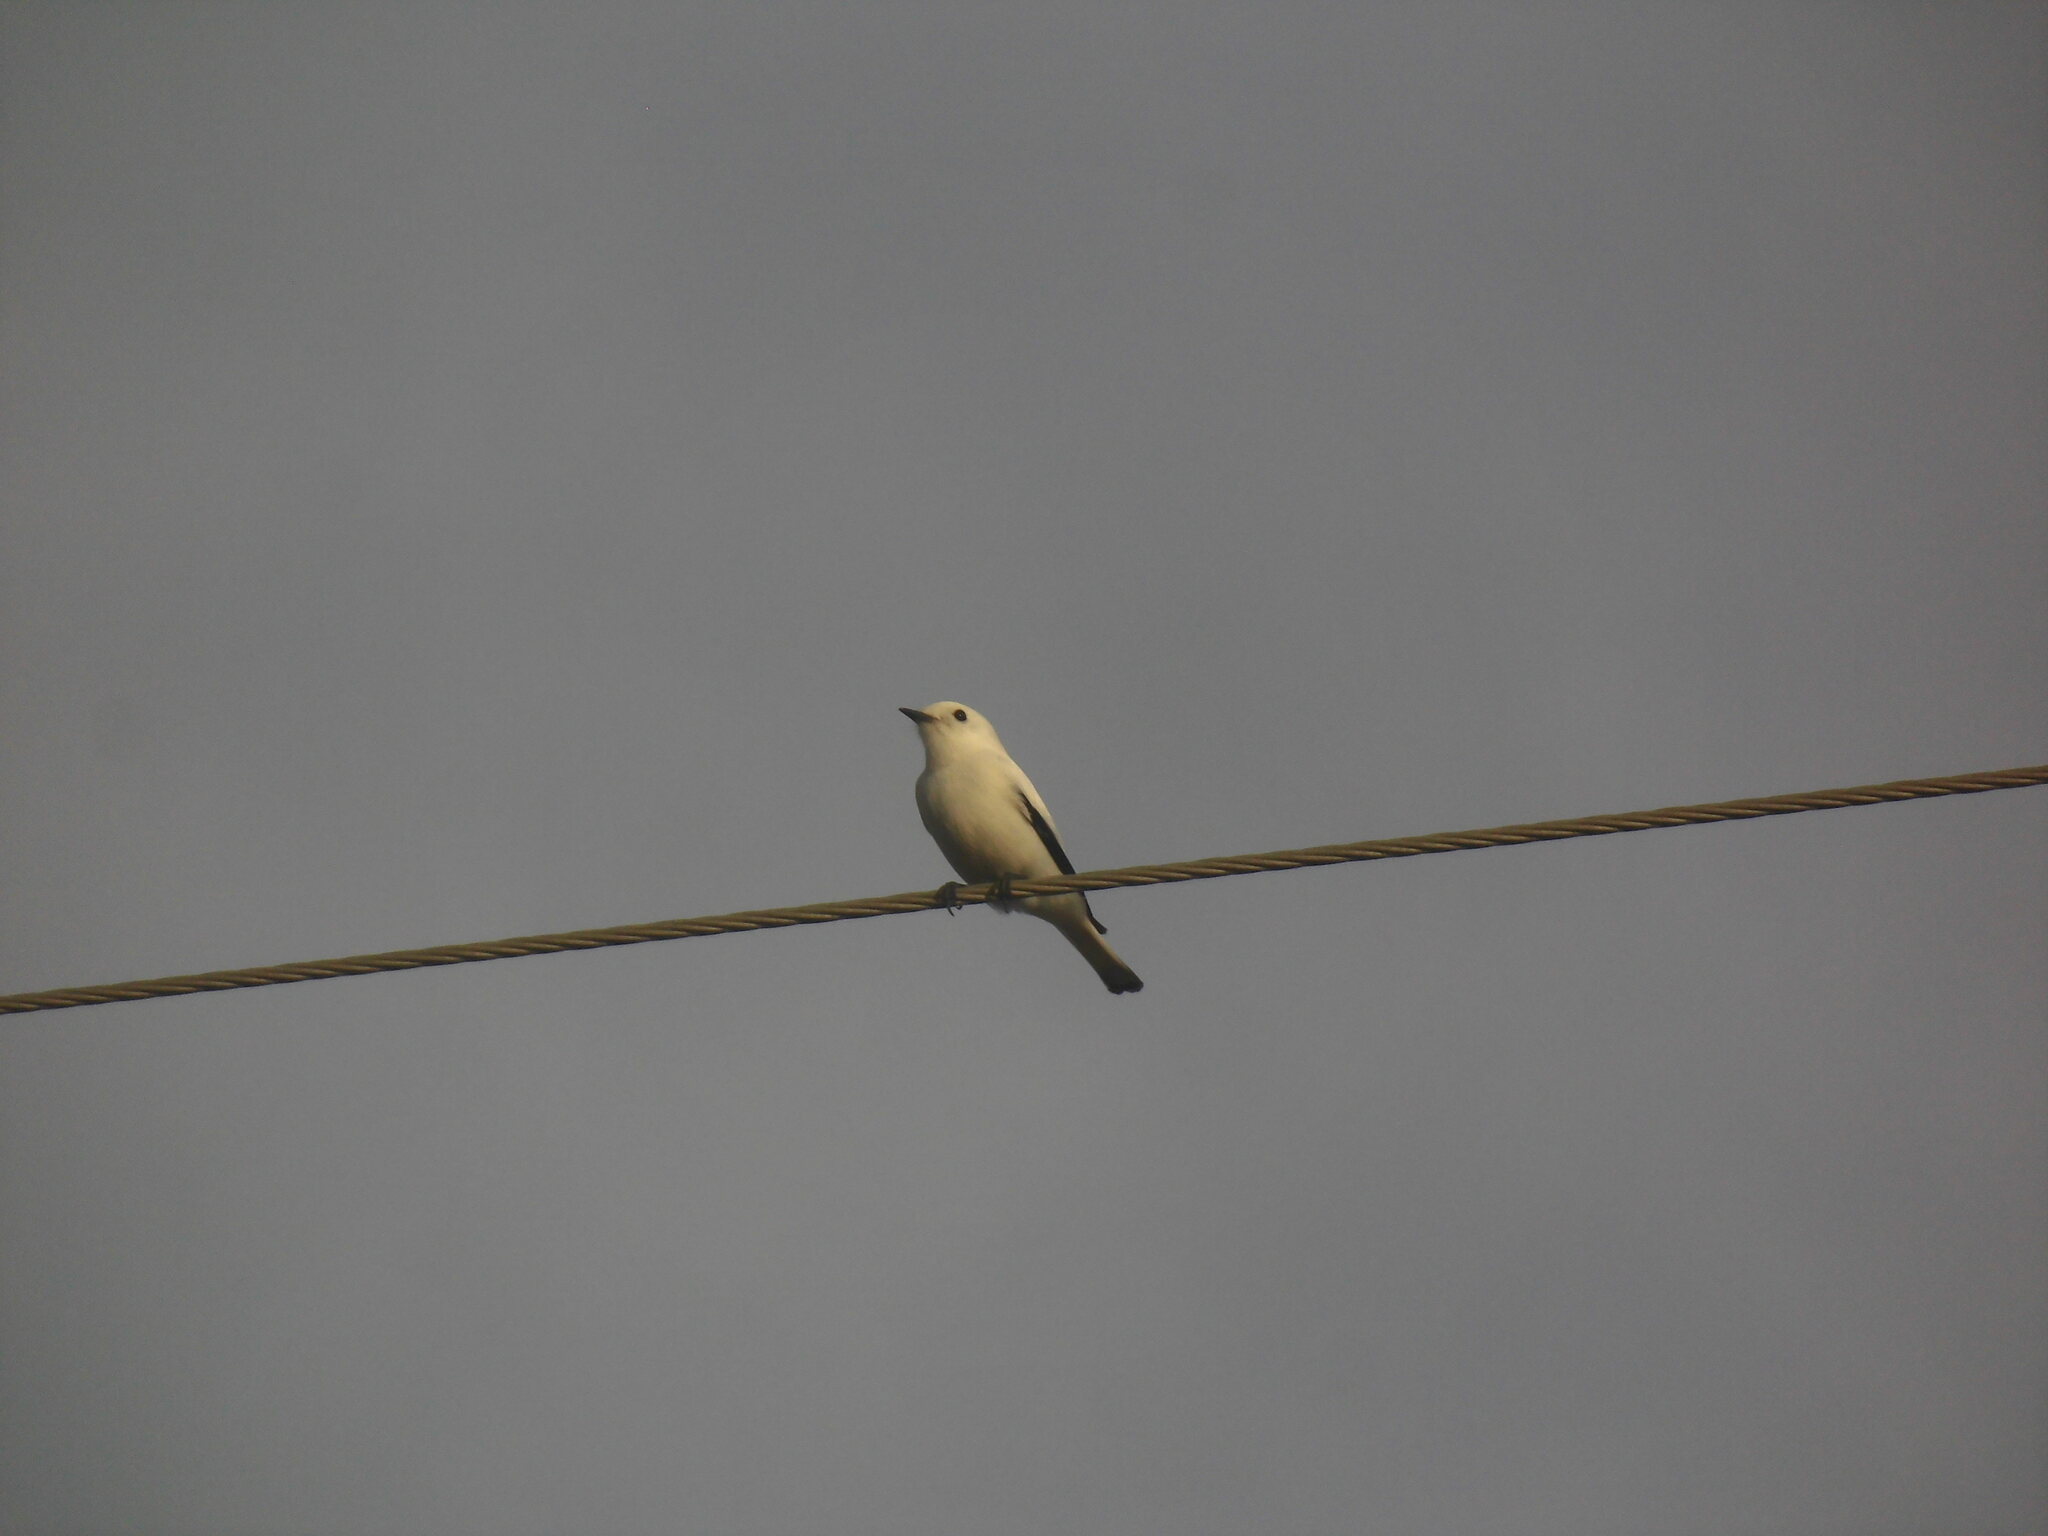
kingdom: Animalia
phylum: Chordata
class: Aves
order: Passeriformes
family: Tyrannidae
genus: Xolmis
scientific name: Xolmis irupero
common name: White monjita
